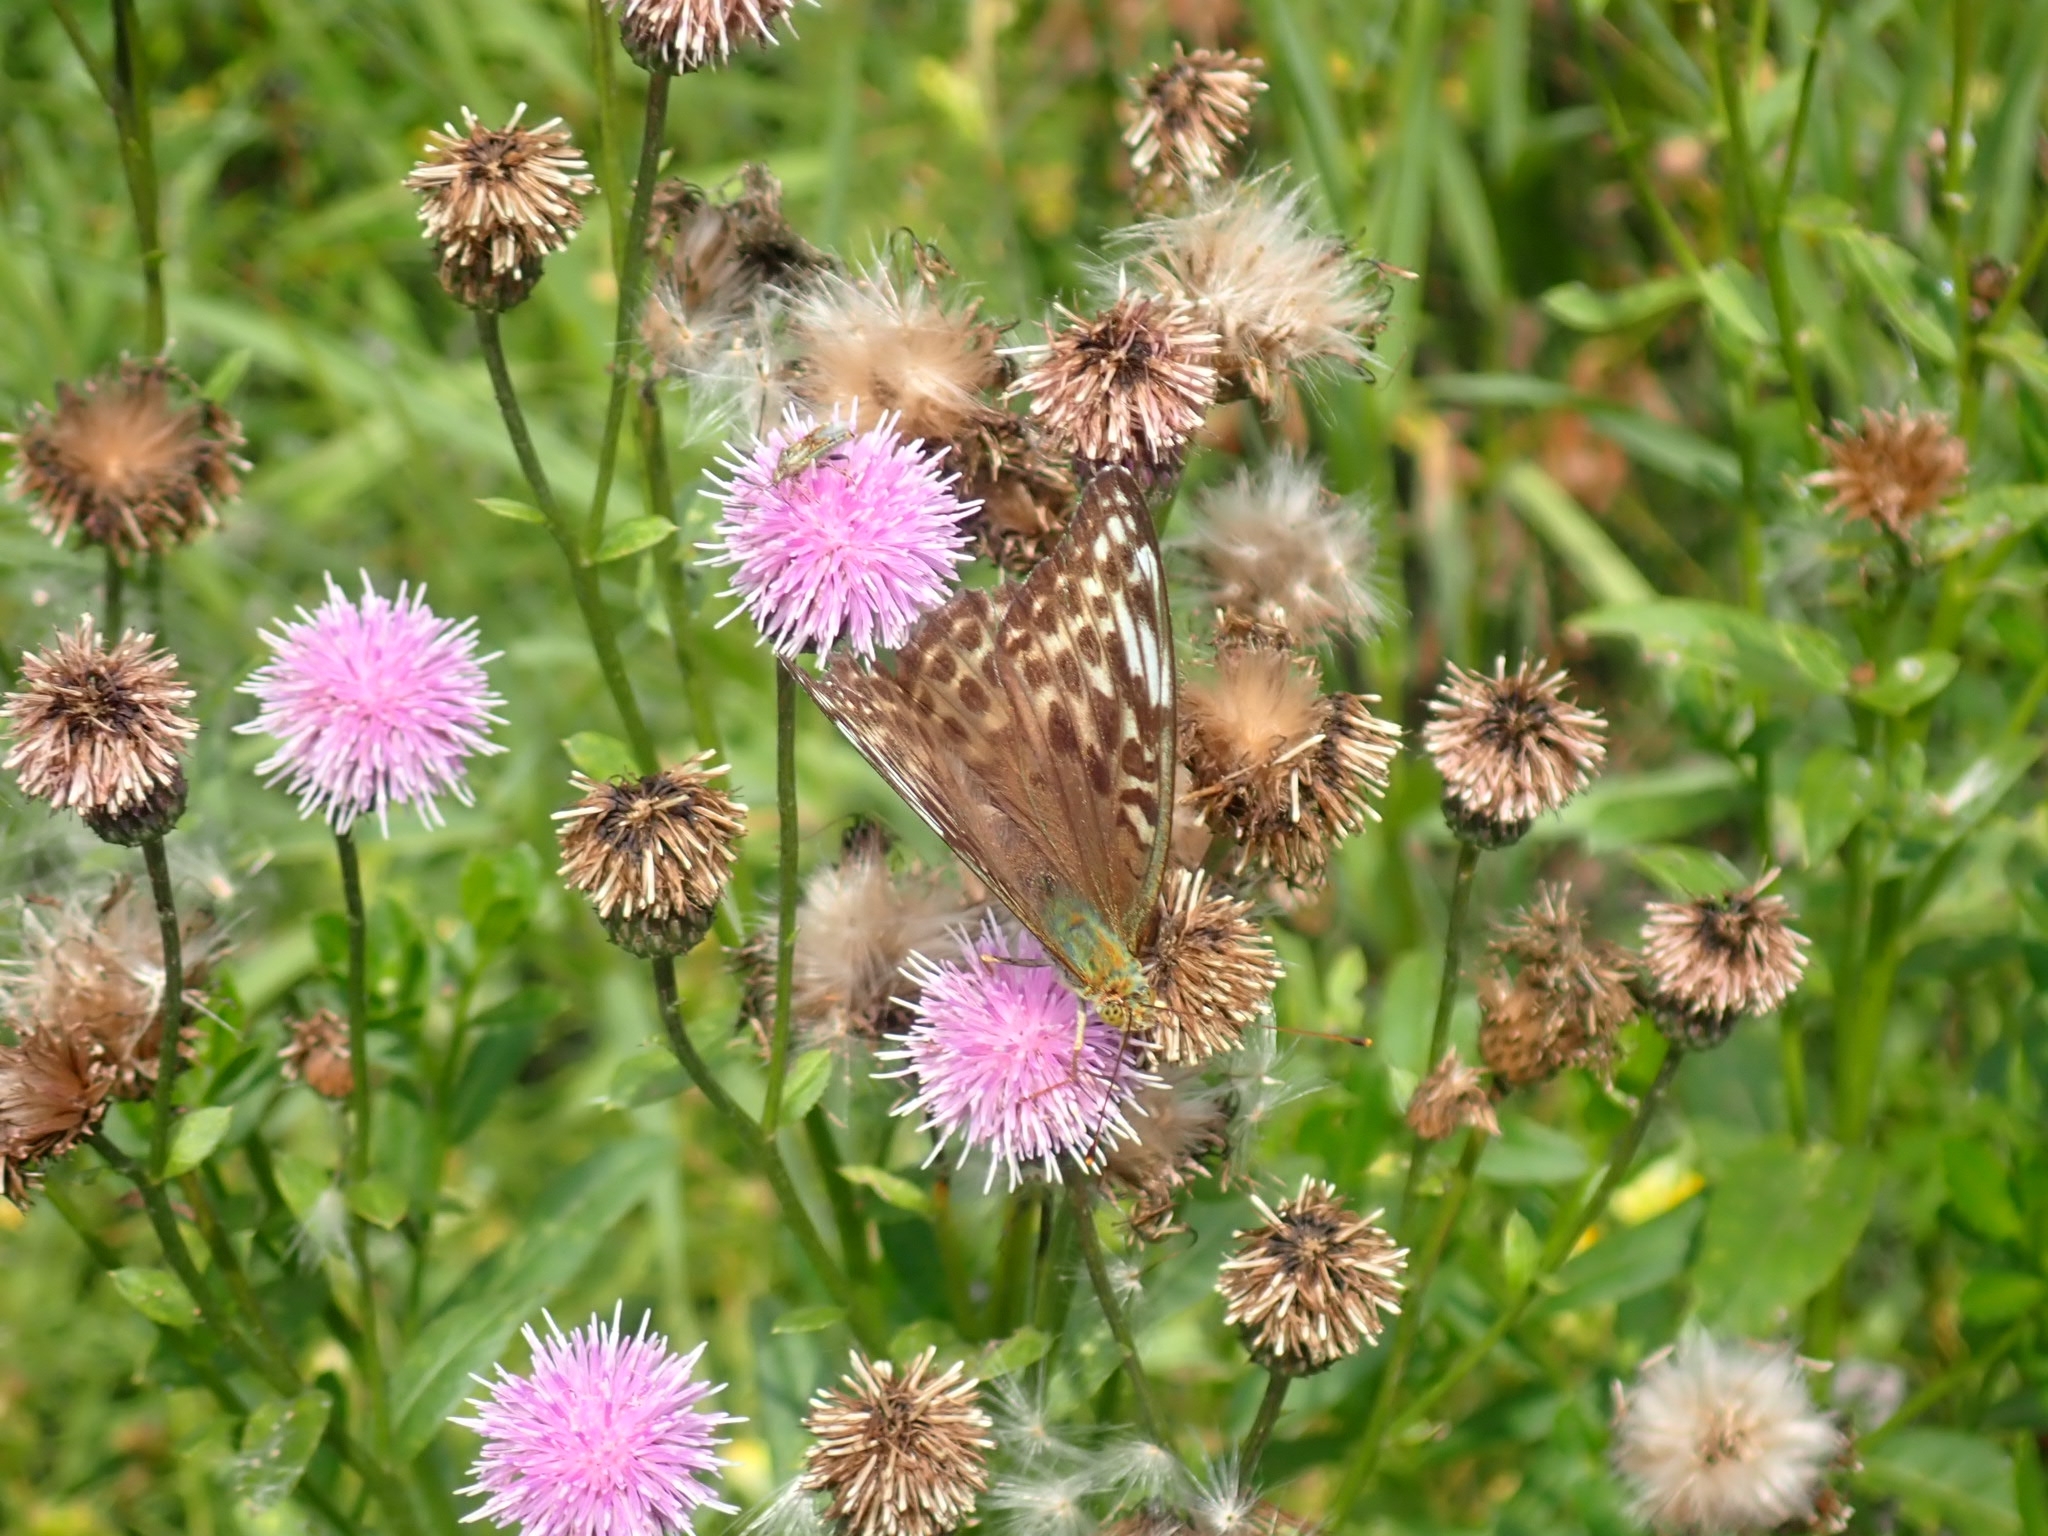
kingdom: Animalia
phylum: Arthropoda
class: Insecta
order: Lepidoptera
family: Nymphalidae
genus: Argynnis
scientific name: Argynnis paphia
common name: Silver-washed fritillary
